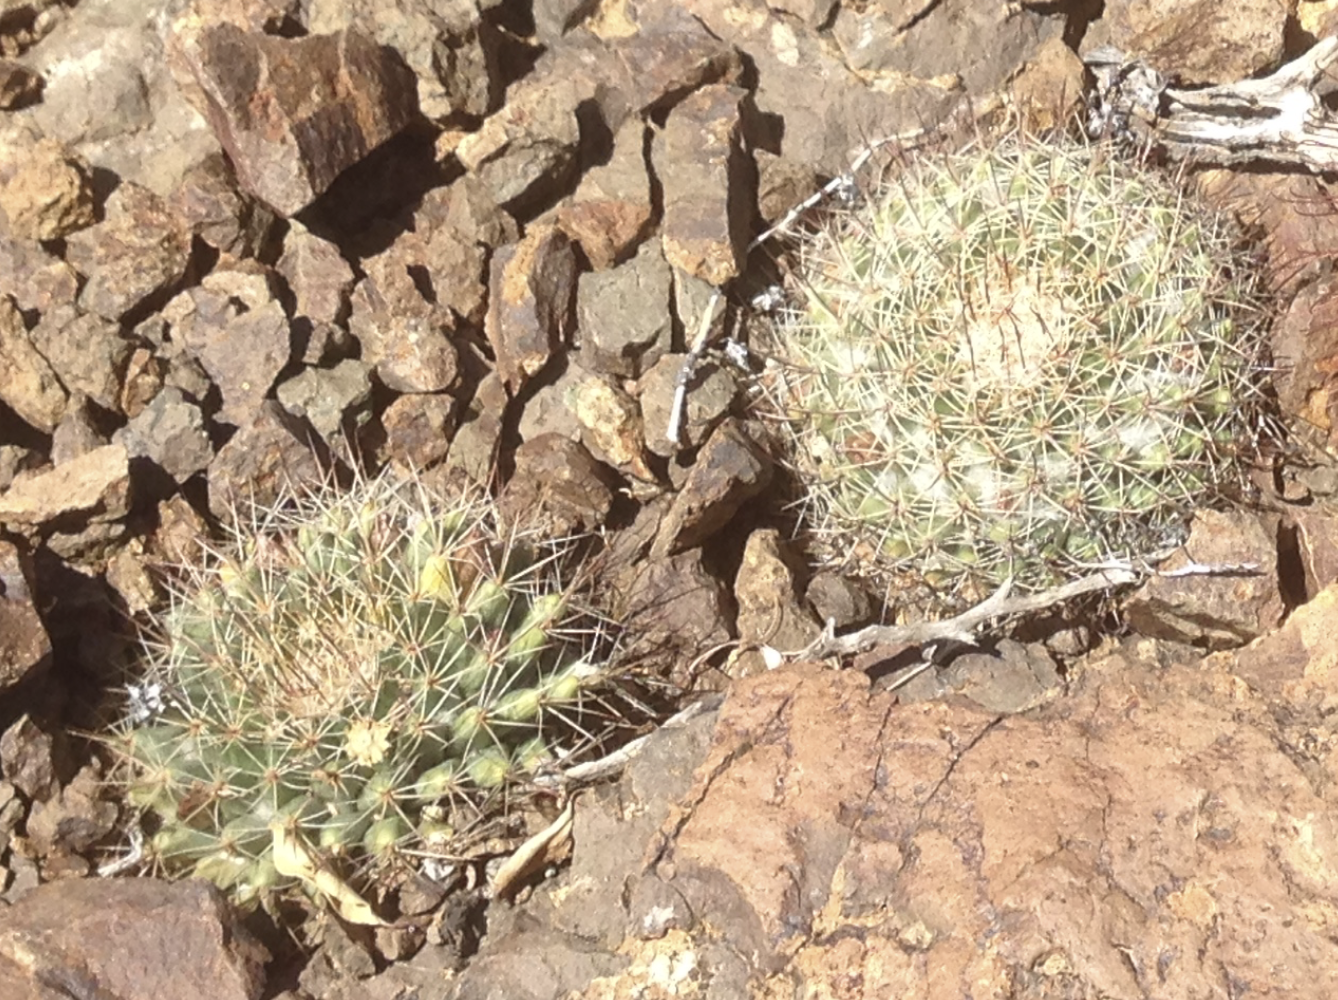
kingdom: Plantae
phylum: Tracheophyta
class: Magnoliopsida
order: Caryophyllales
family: Cactaceae
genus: Mammillaria
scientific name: Mammillaria brandegeei
